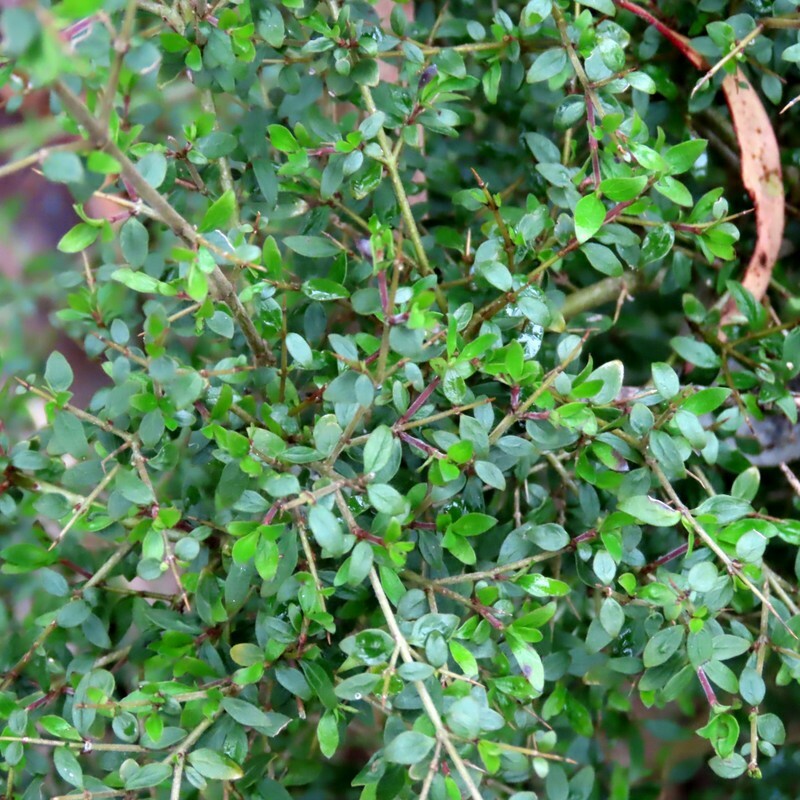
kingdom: Plantae
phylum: Tracheophyta
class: Magnoliopsida
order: Gentianales
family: Rubiaceae
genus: Coprosma
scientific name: Coprosma quadrifida
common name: Prickly currantbush
